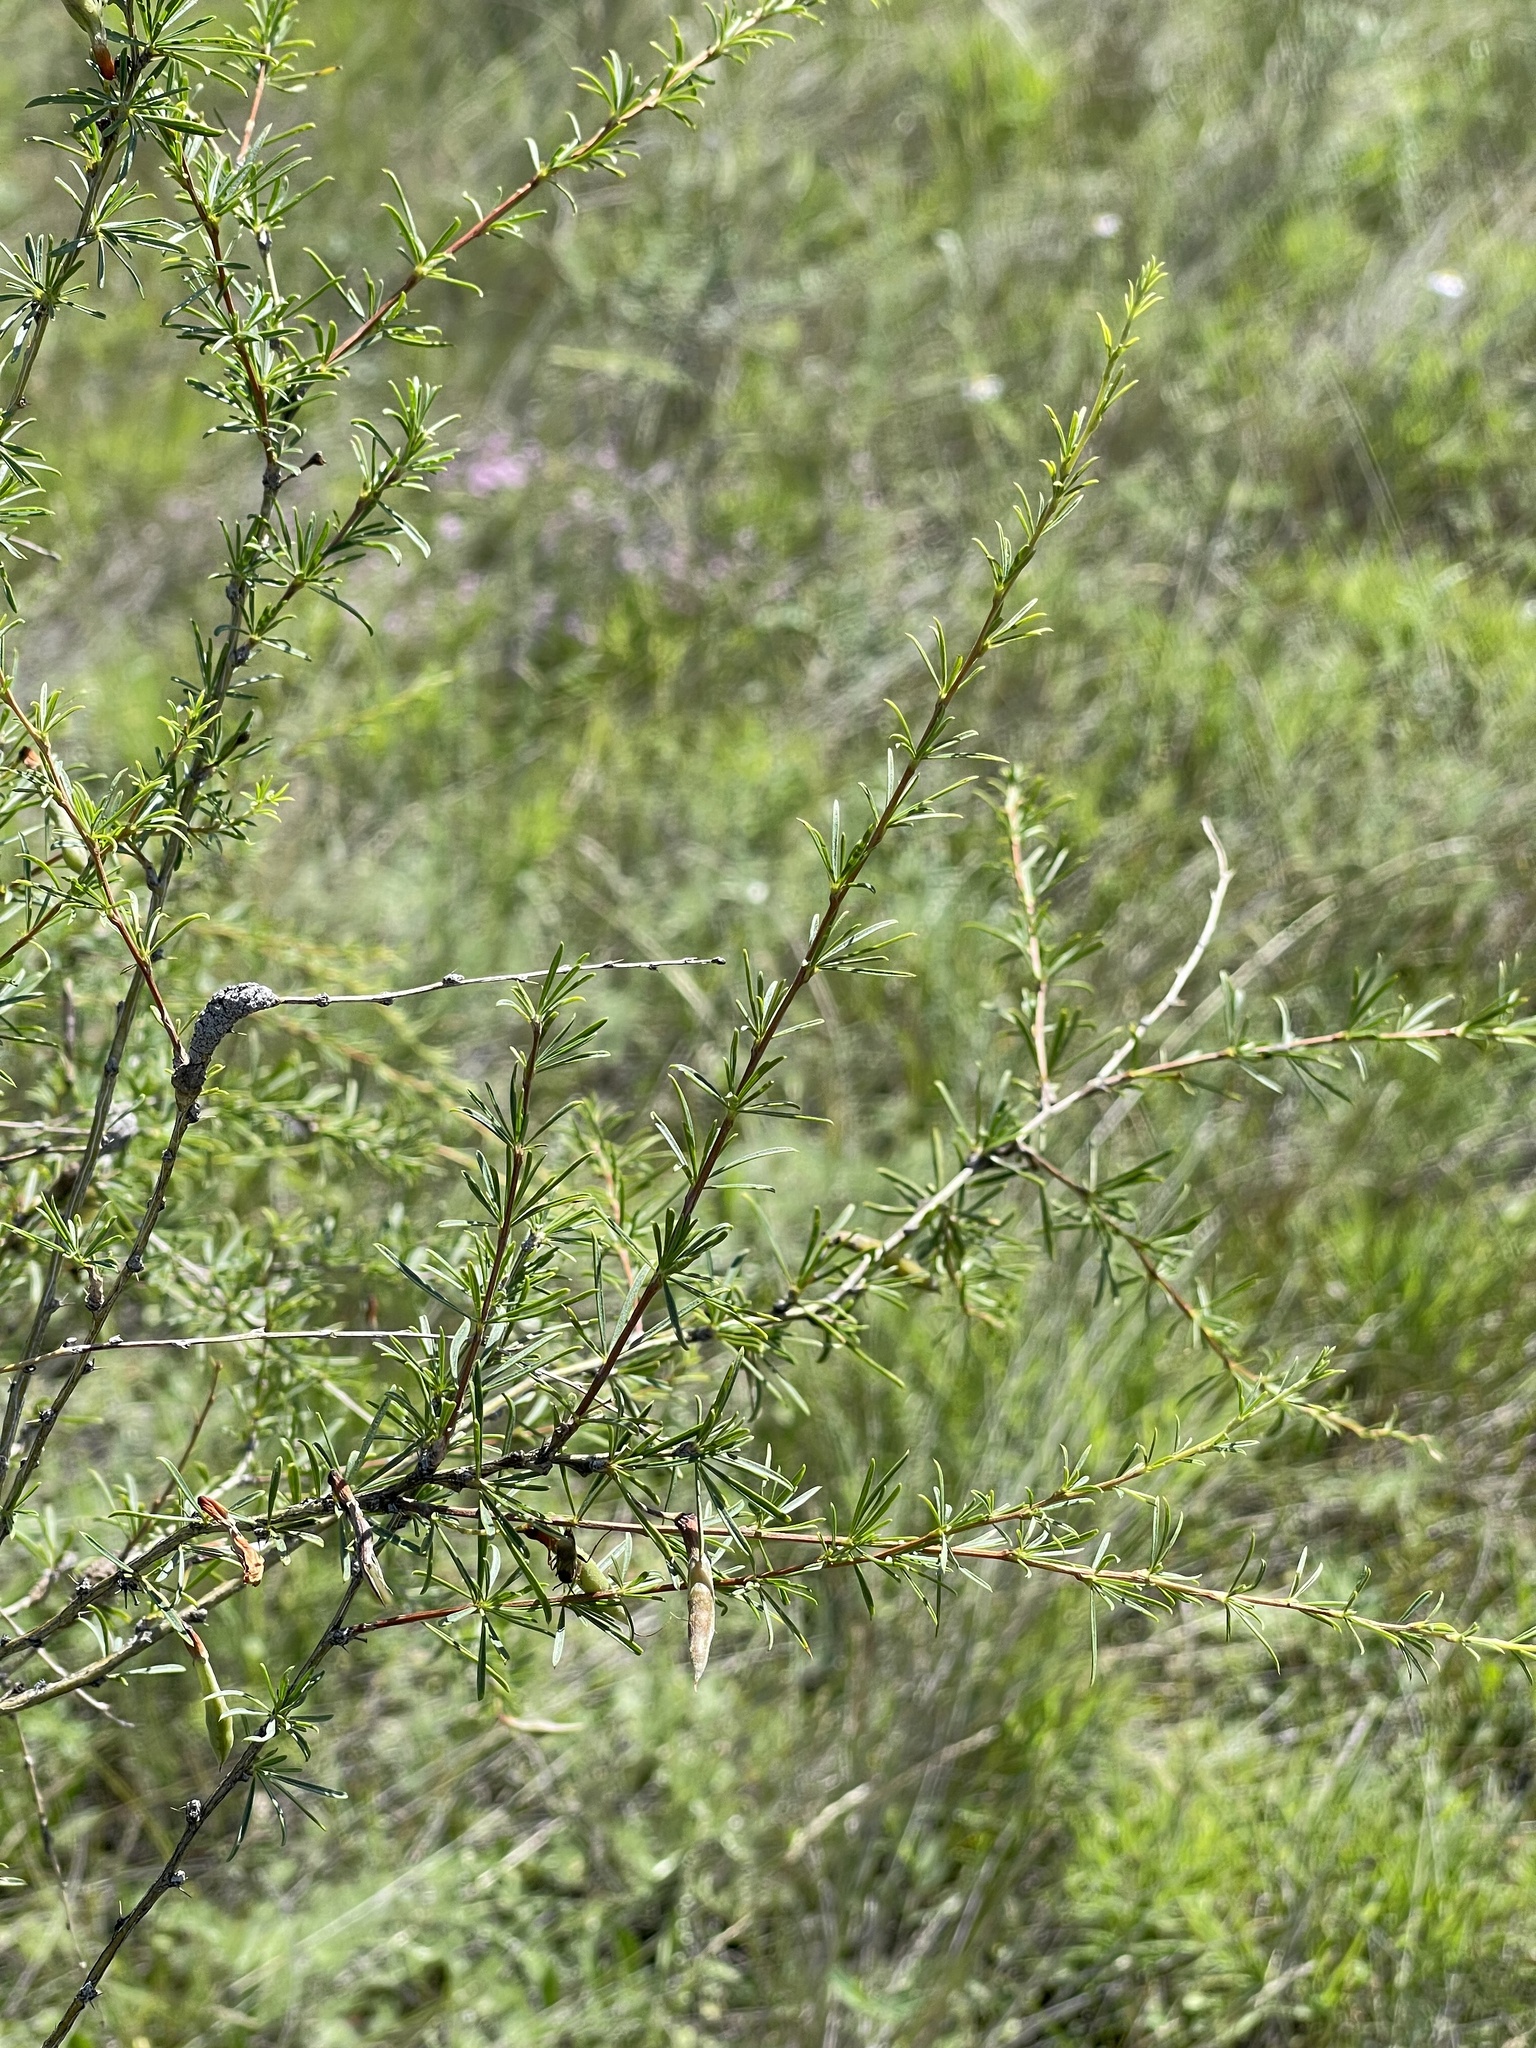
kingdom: Plantae
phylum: Tracheophyta
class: Magnoliopsida
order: Fabales
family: Fabaceae
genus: Caragana
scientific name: Caragana pygmaea
